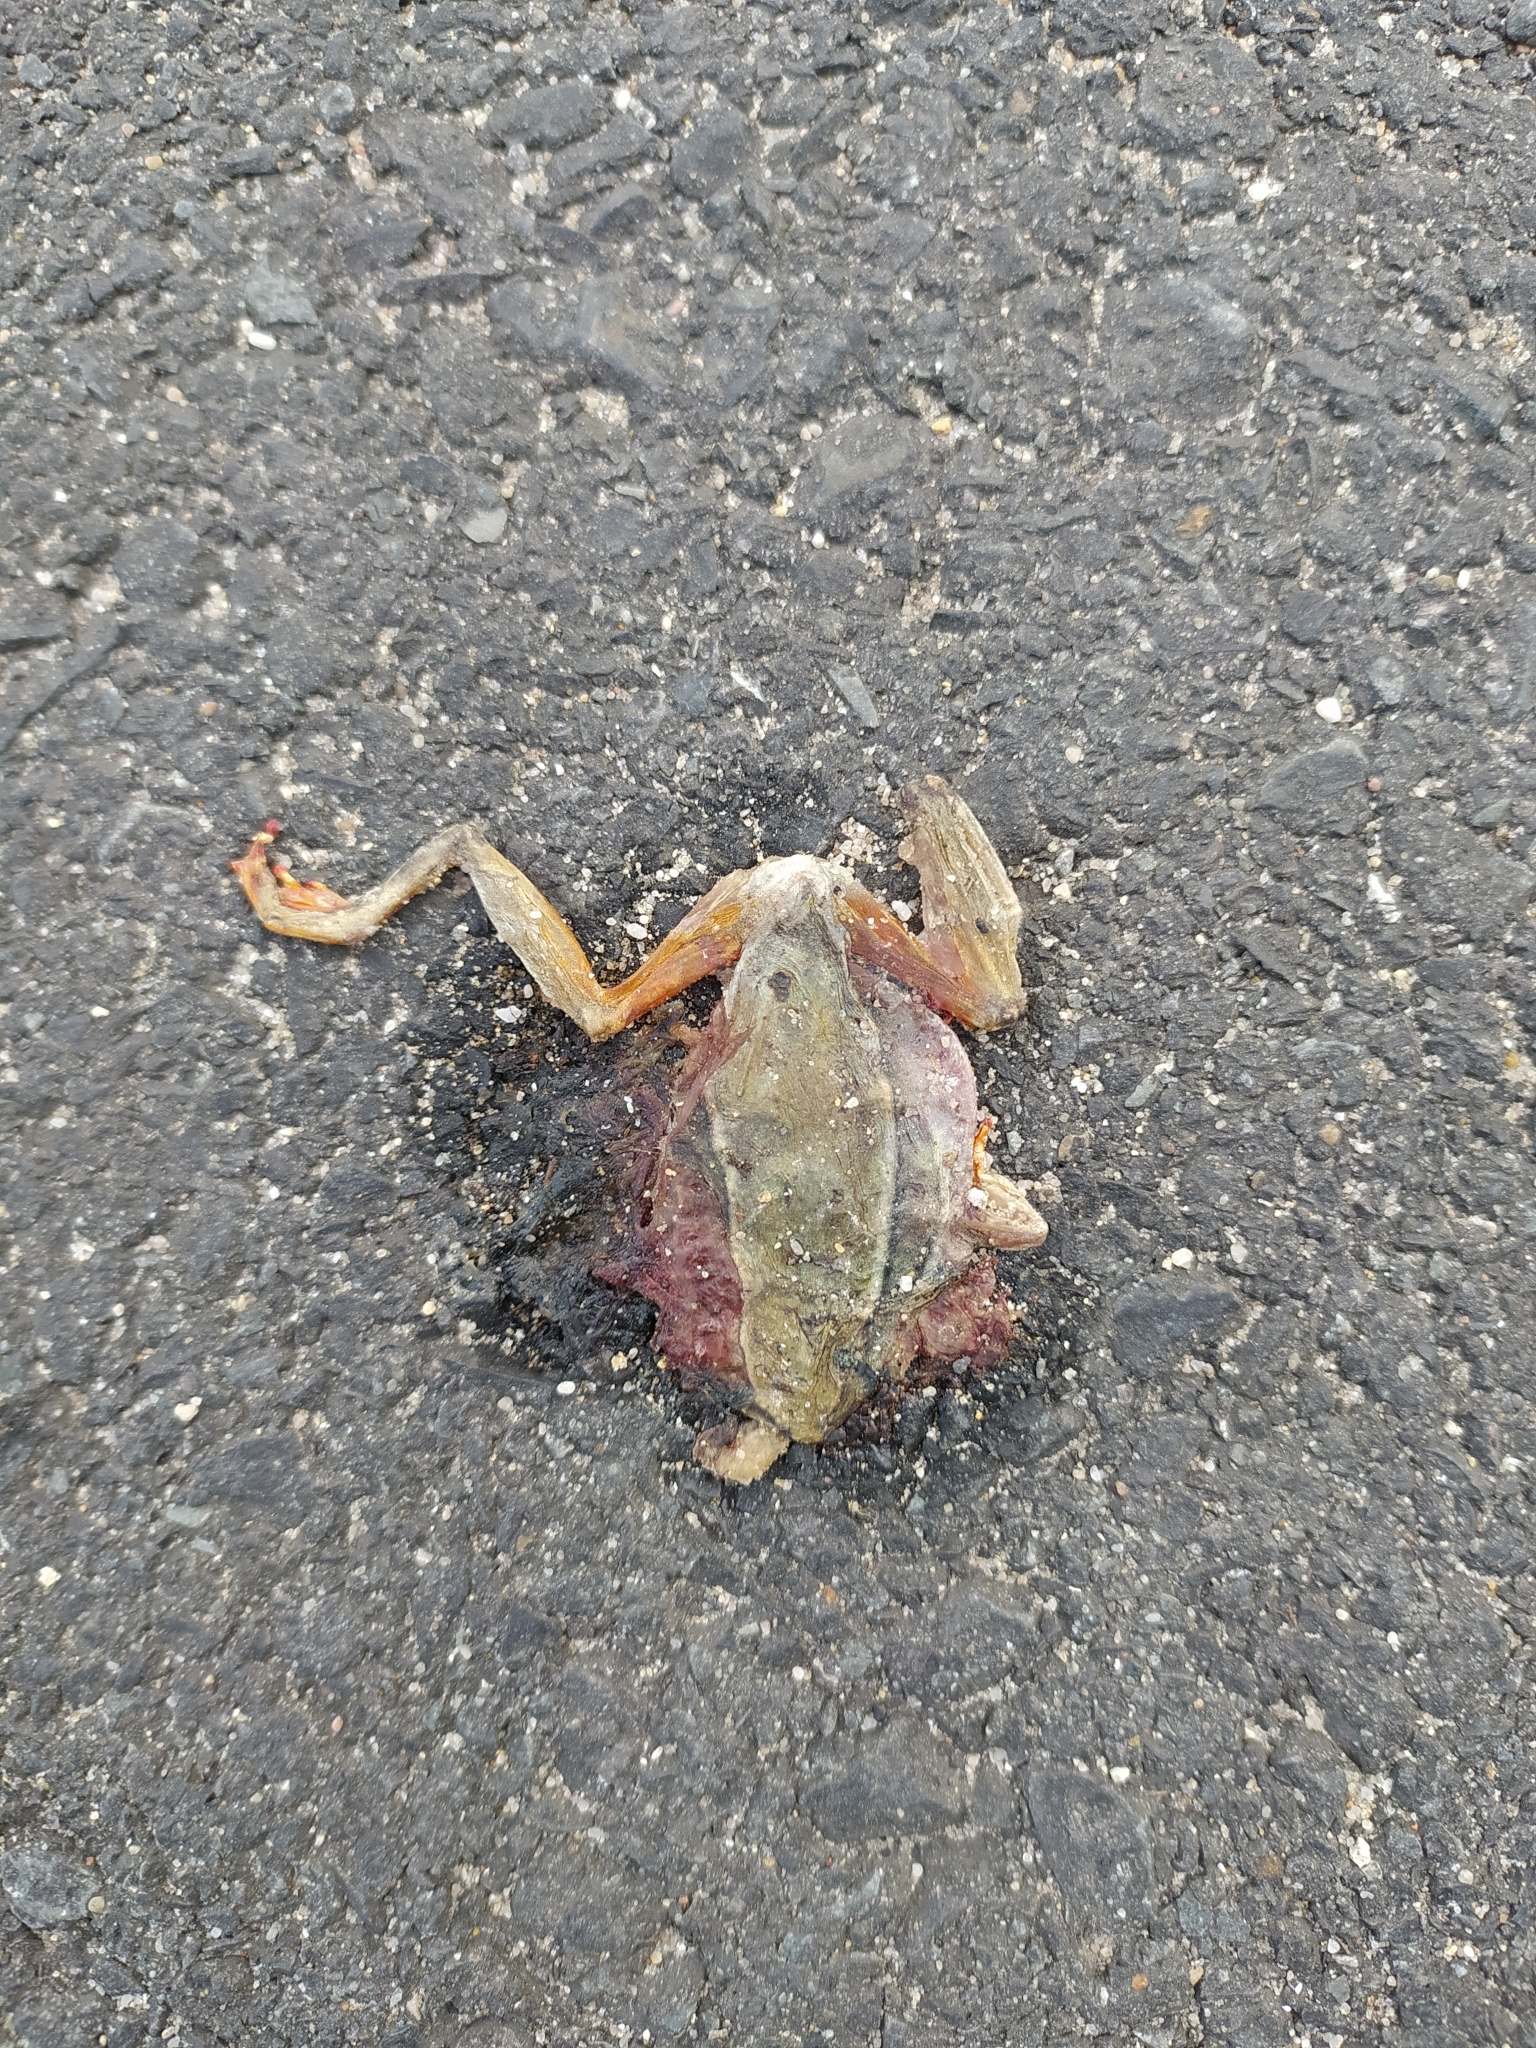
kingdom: Animalia
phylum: Chordata
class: Amphibia
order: Anura
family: Hyperoliidae
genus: Hyperolius
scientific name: Hyperolius horstockii
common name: Arum lily frog
